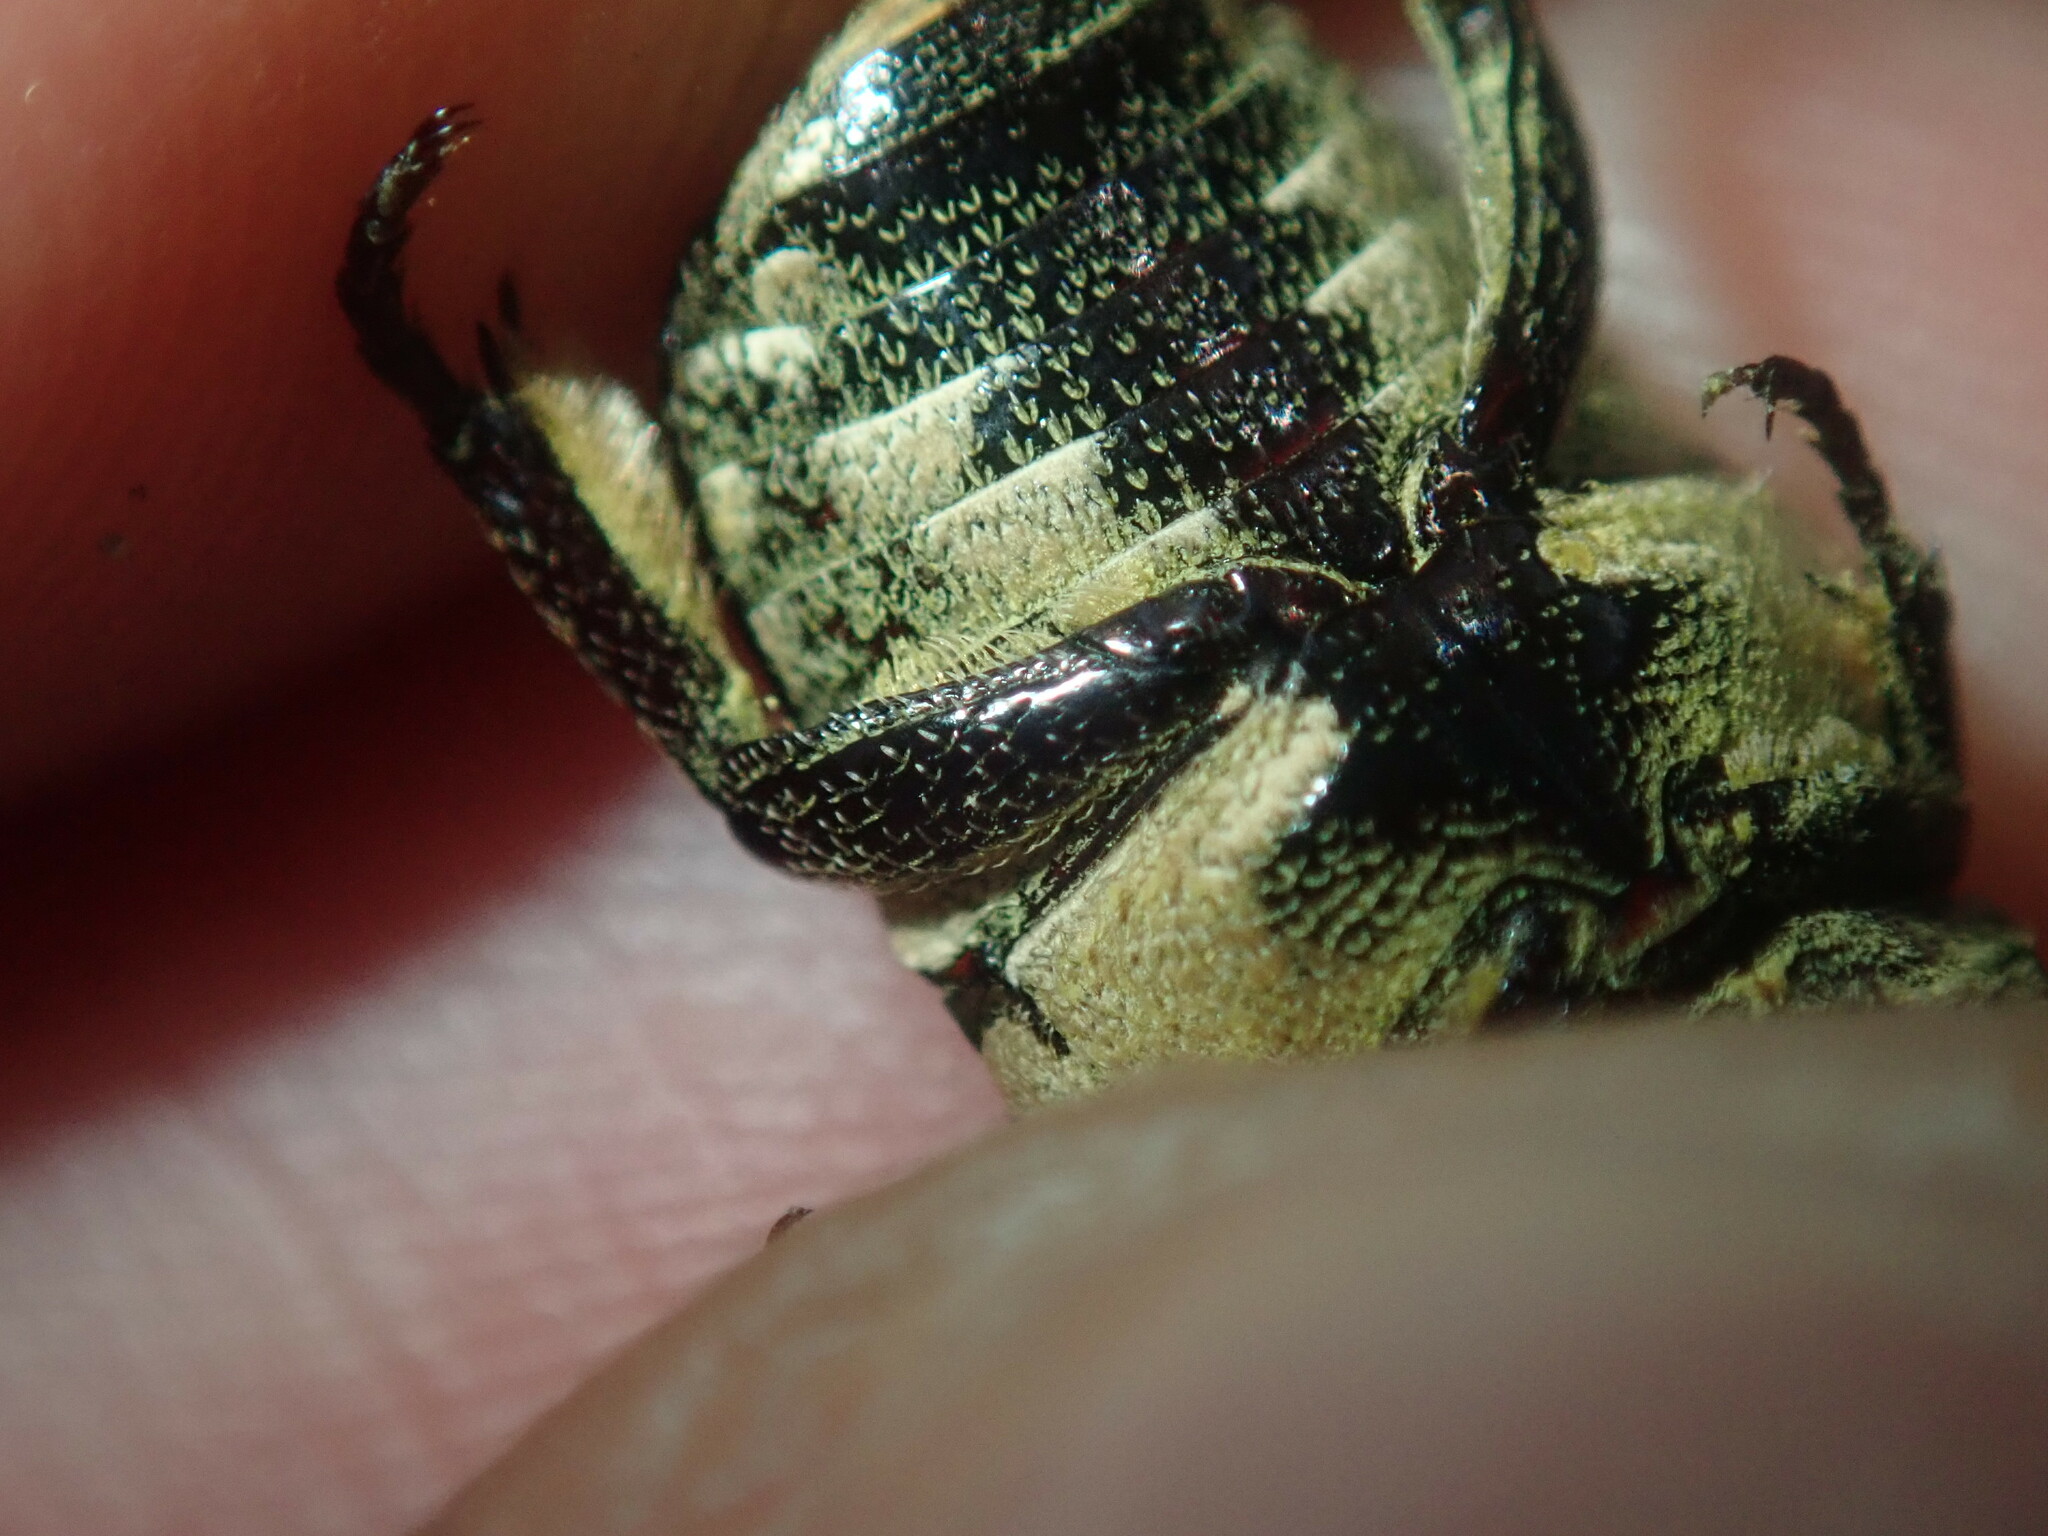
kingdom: Animalia
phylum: Arthropoda
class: Insecta
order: Coleoptera
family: Scarabaeidae
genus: Glycyphana
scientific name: Glycyphana stolata
